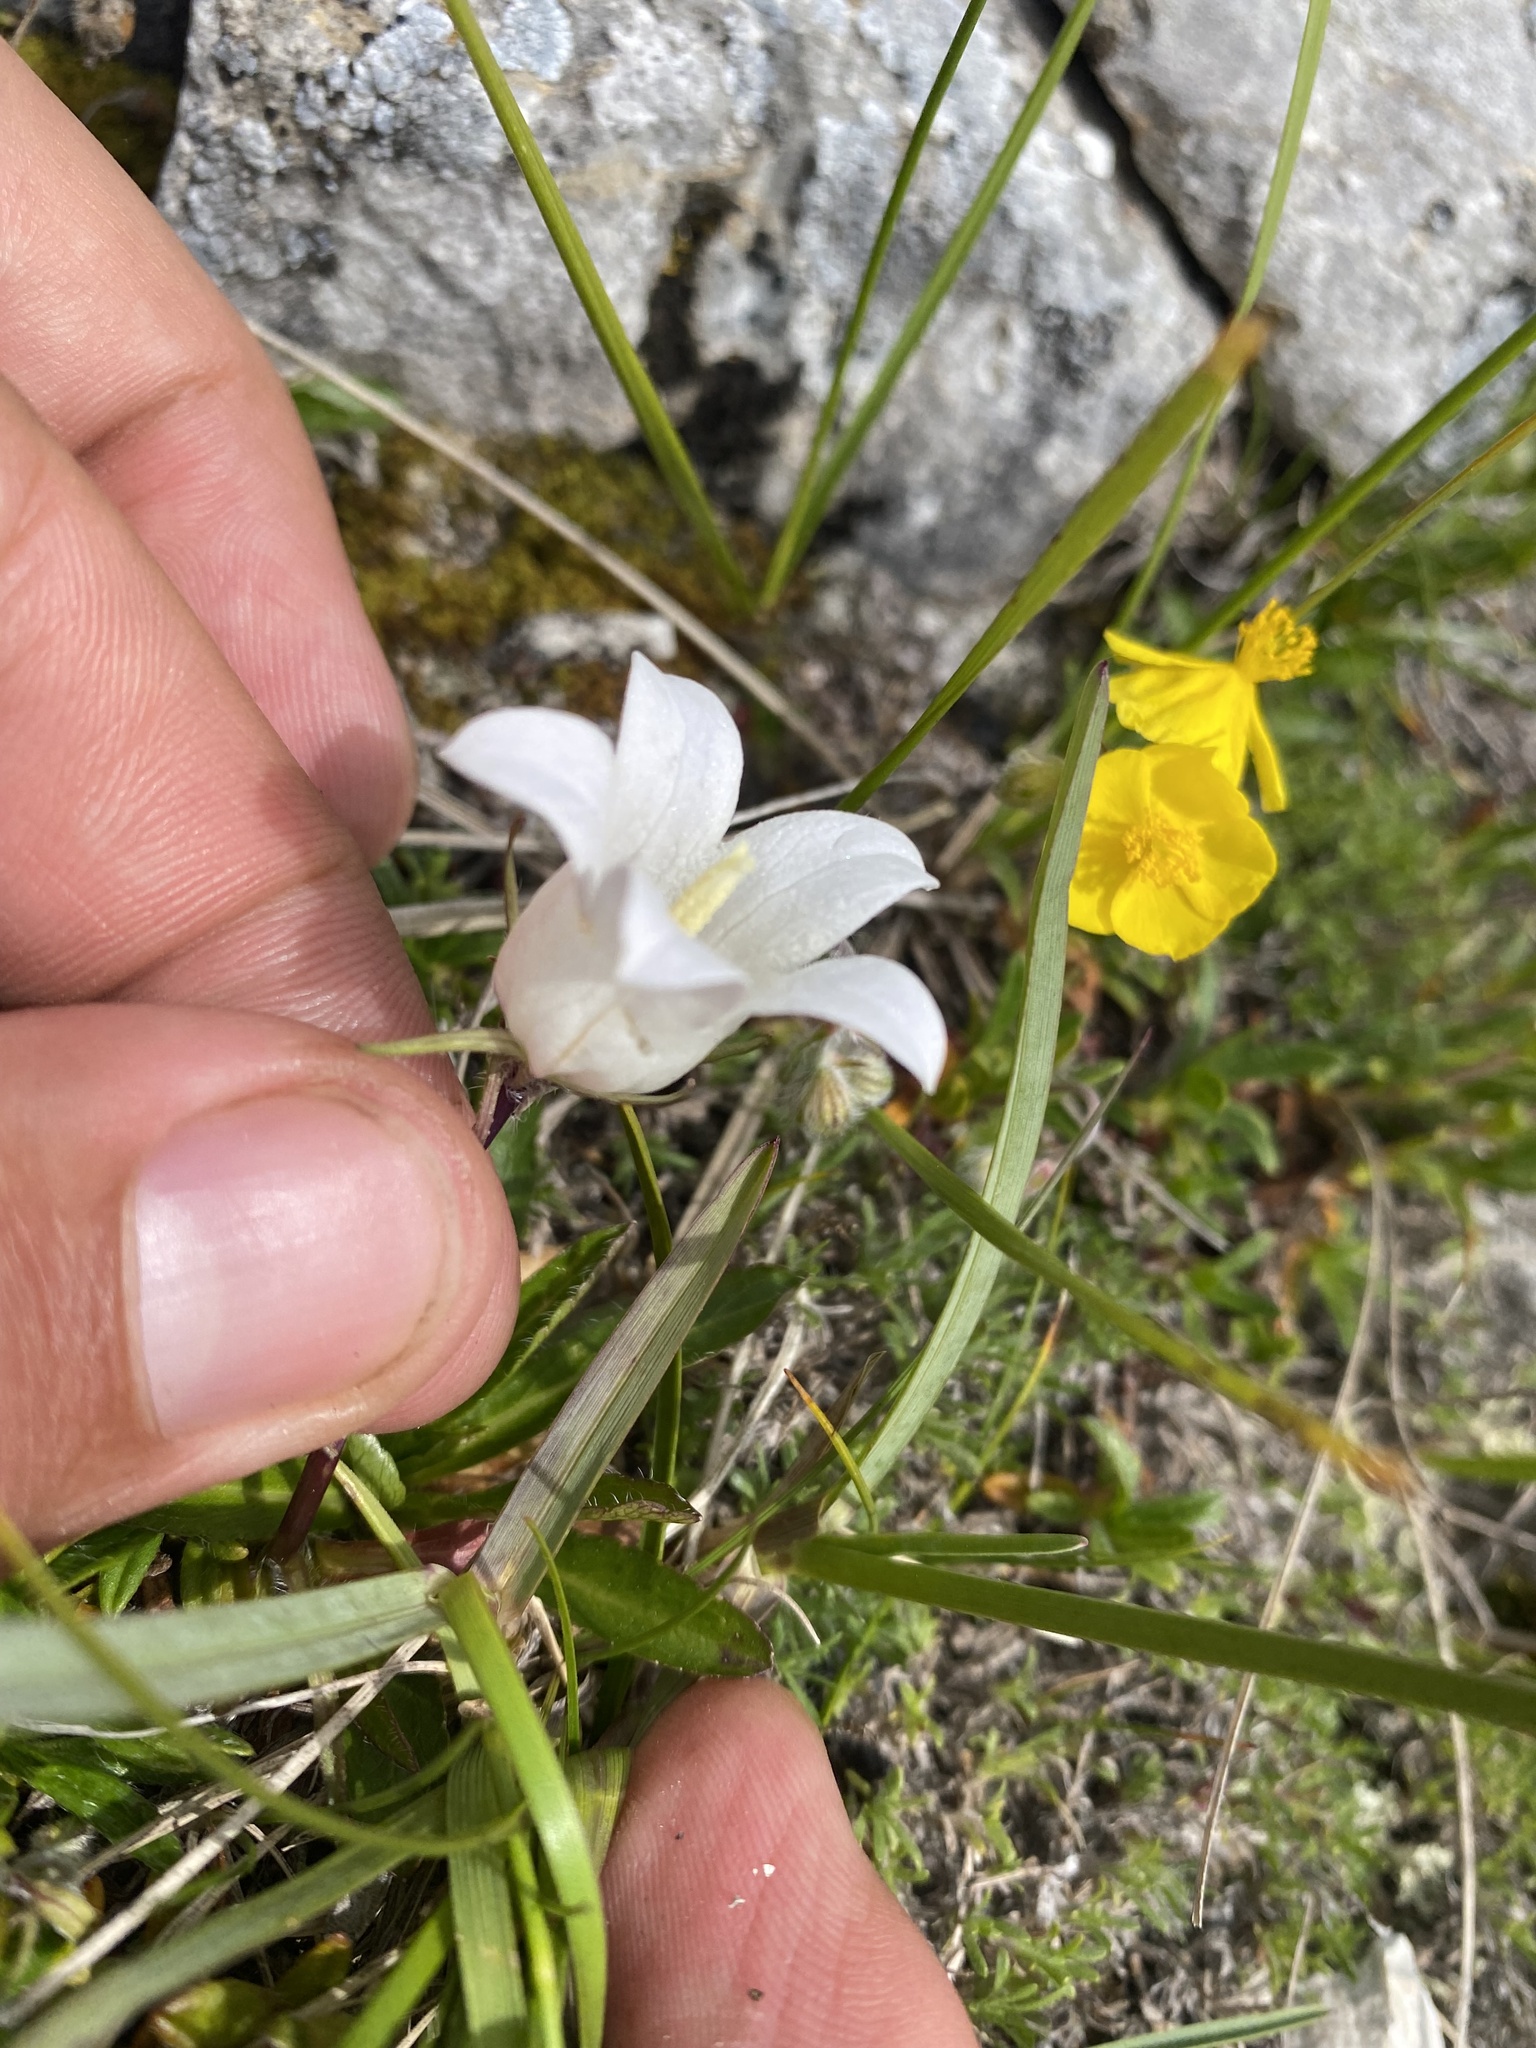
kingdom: Plantae
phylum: Tracheophyta
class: Magnoliopsida
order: Asterales
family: Campanulaceae
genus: Campanula
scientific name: Campanula ciliata
